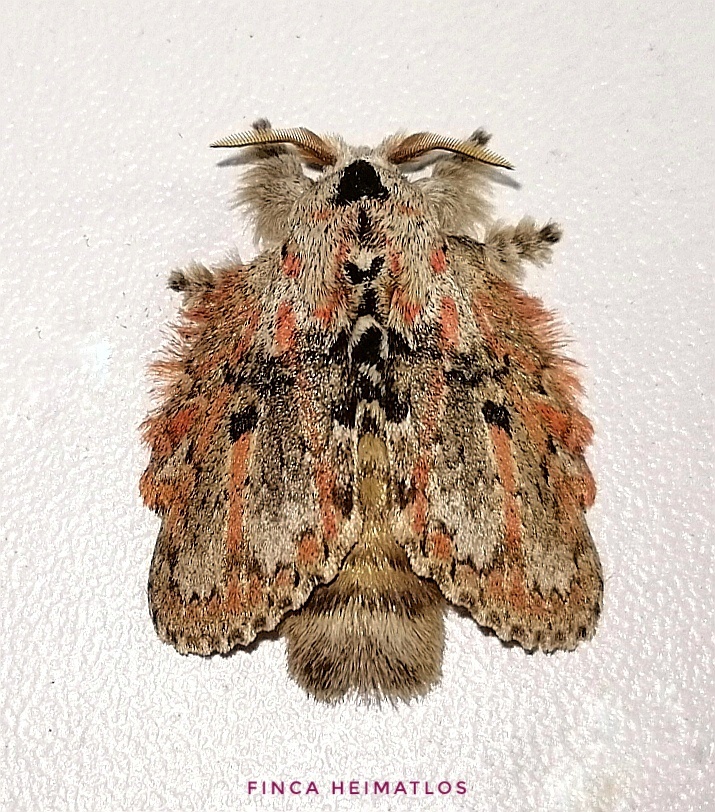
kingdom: Animalia
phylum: Arthropoda
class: Insecta
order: Lepidoptera
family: Lasiocampidae
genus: Euglyphis
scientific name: Euglyphis gibea
